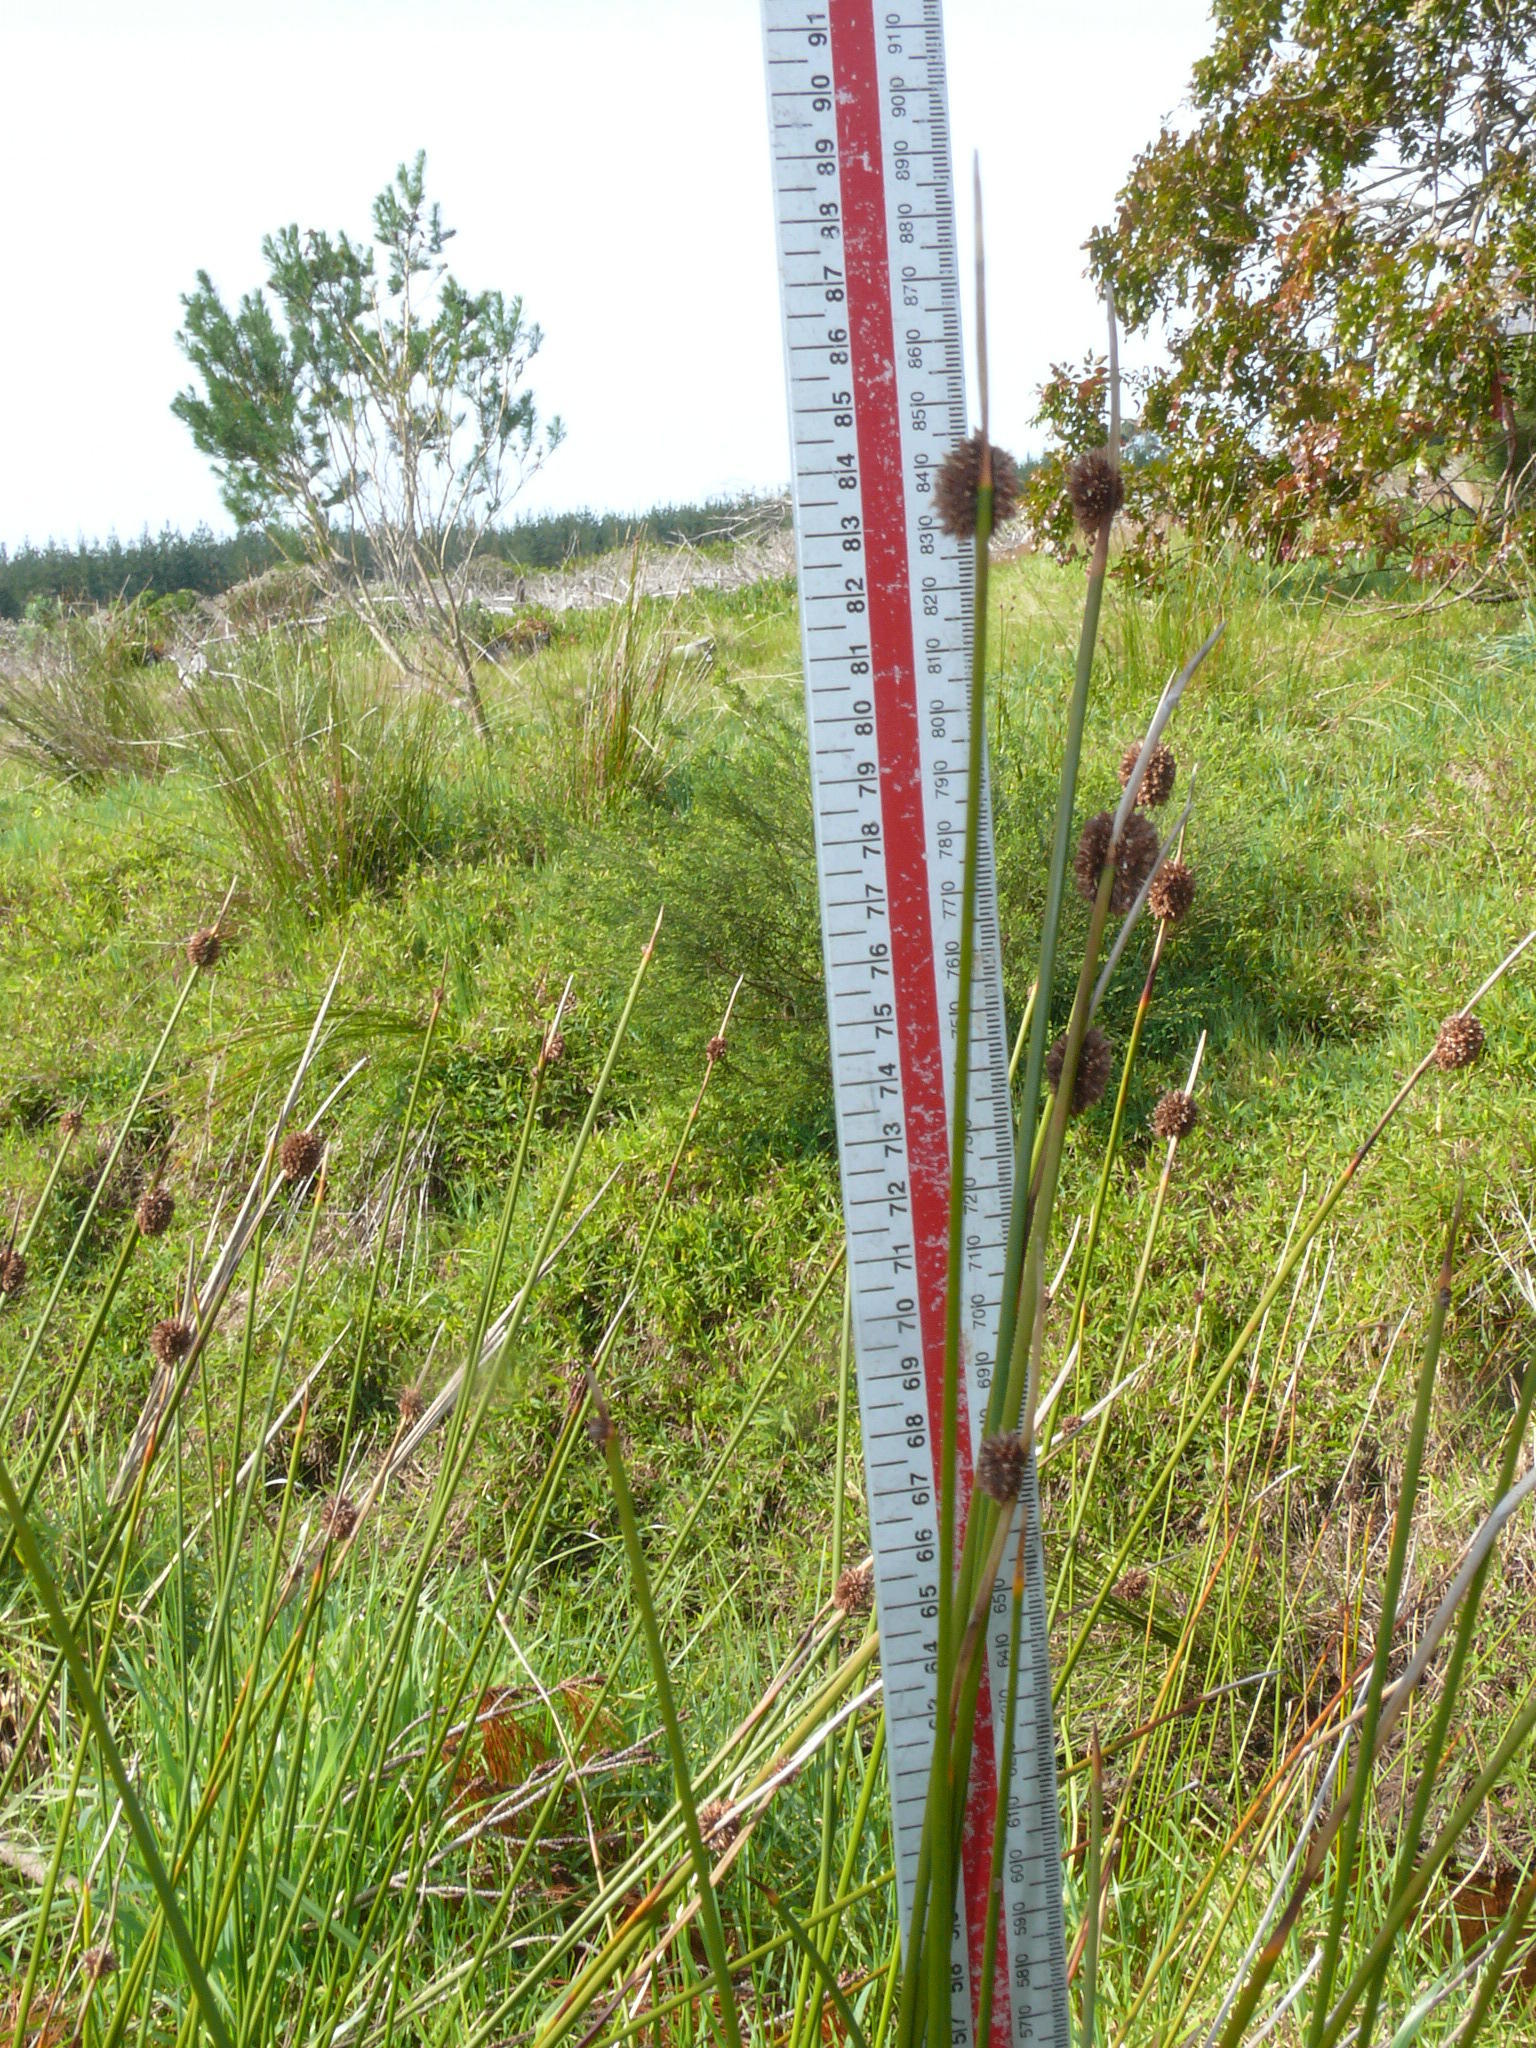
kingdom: Plantae
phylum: Tracheophyta
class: Liliopsida
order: Poales
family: Cyperaceae
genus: Ficinia
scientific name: Ficinia nodosa
